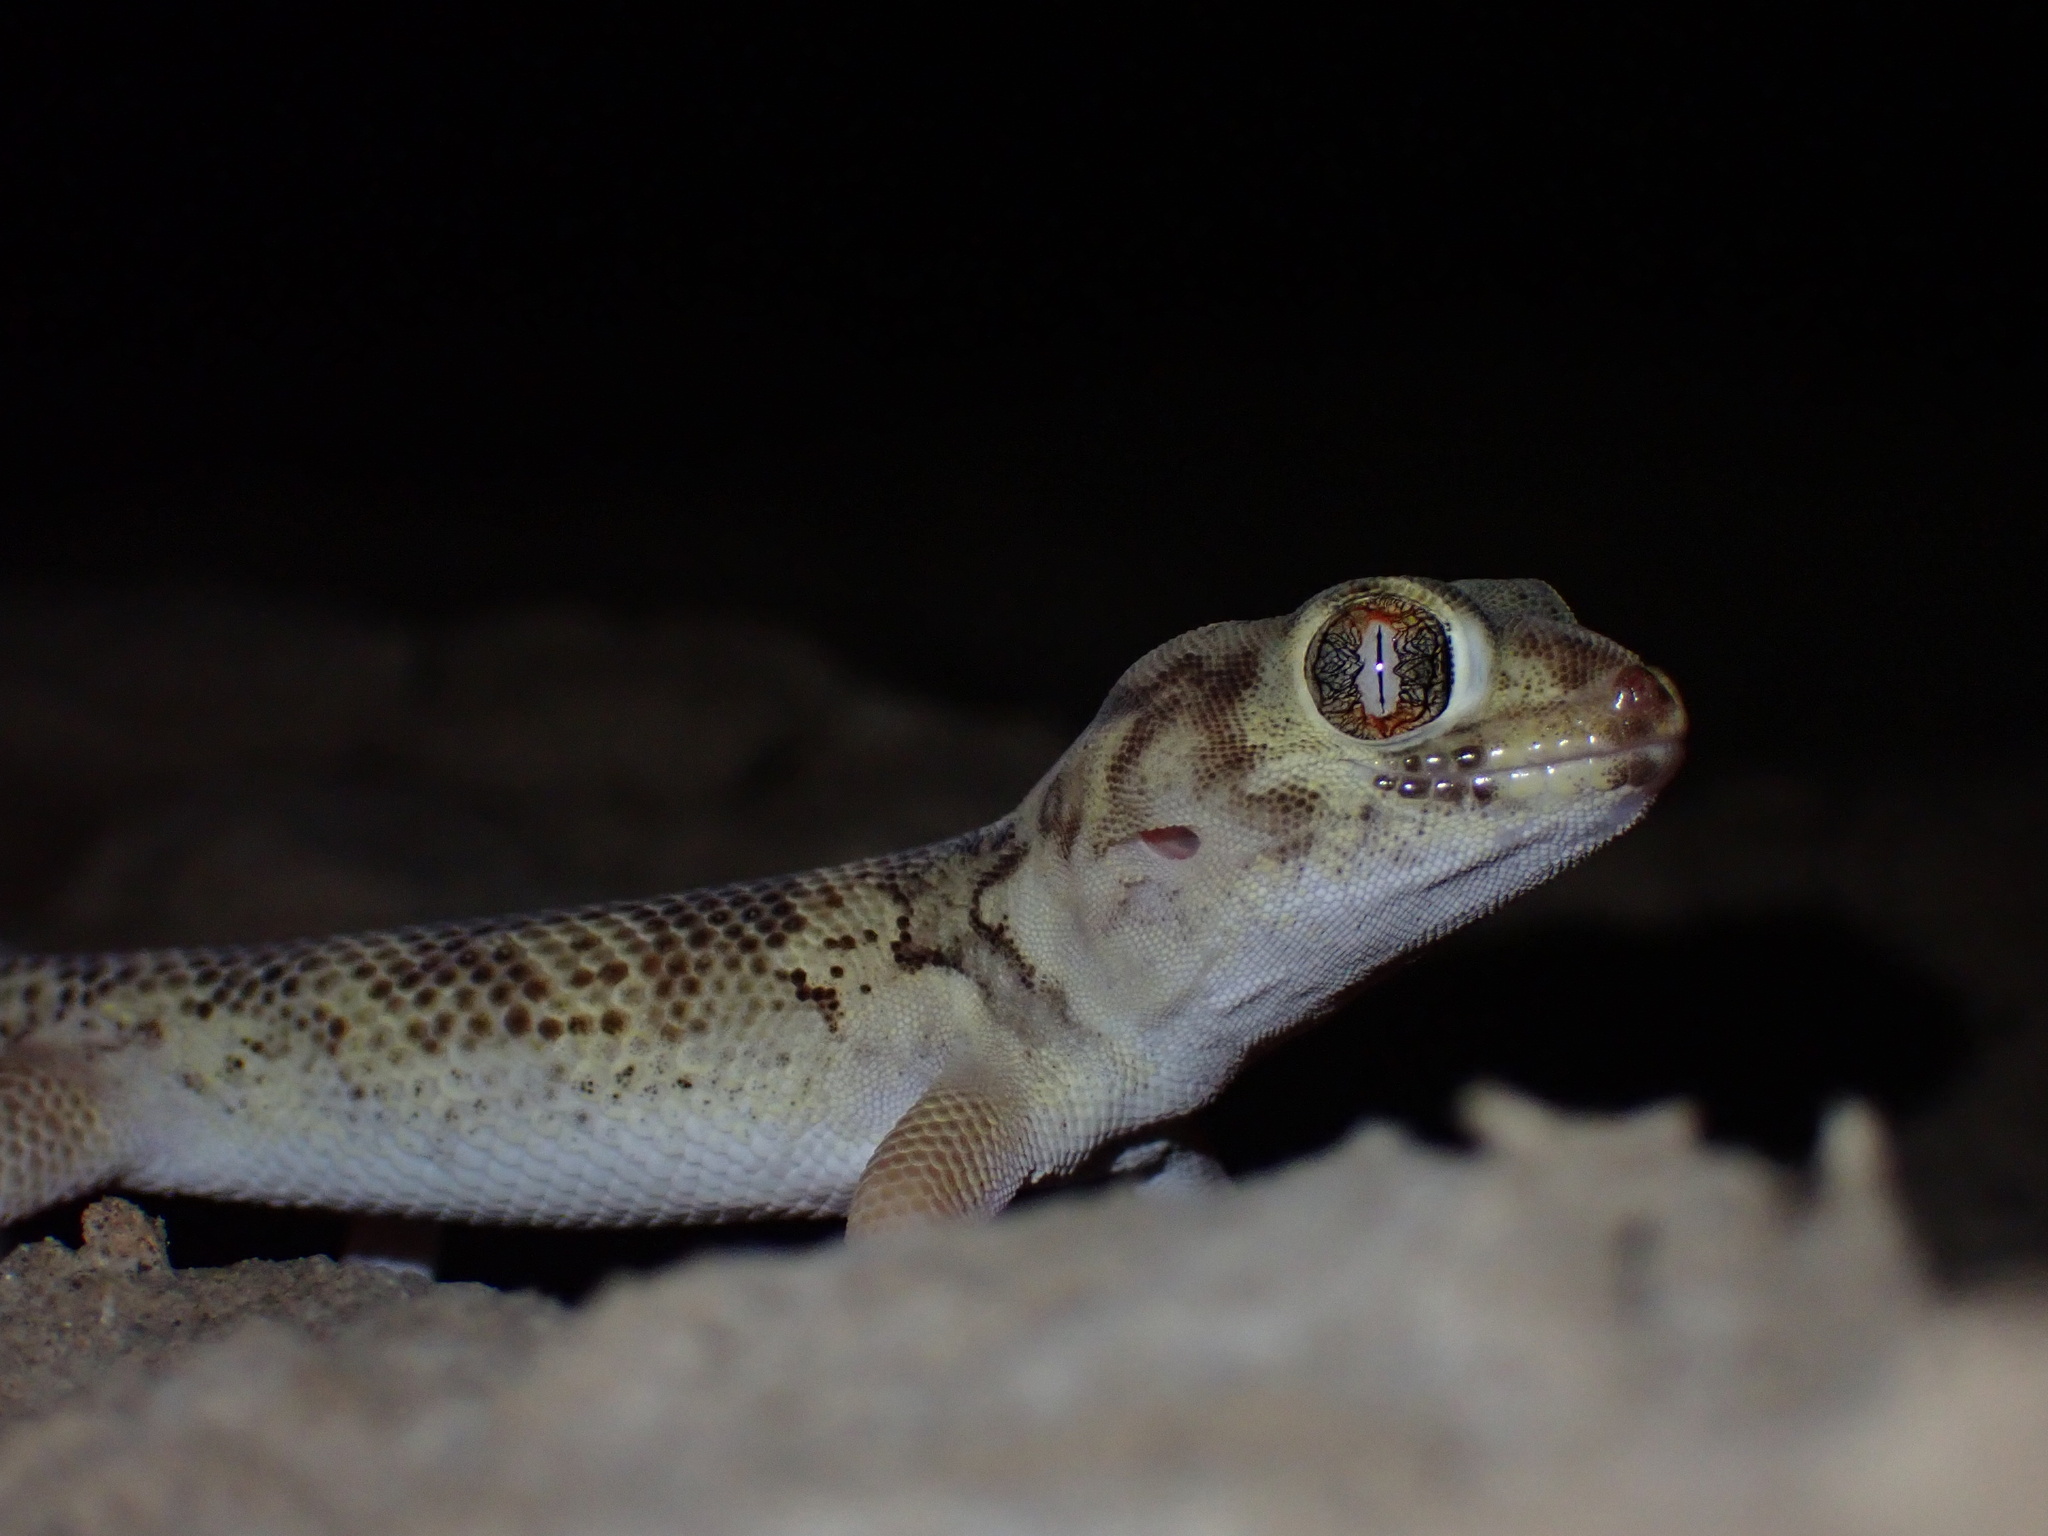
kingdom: Animalia
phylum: Chordata
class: Squamata
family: Sphaerodactylidae
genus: Teratoscincus
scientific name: Teratoscincus bedriagai
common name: Bedriaga's plate-tailed gecko
